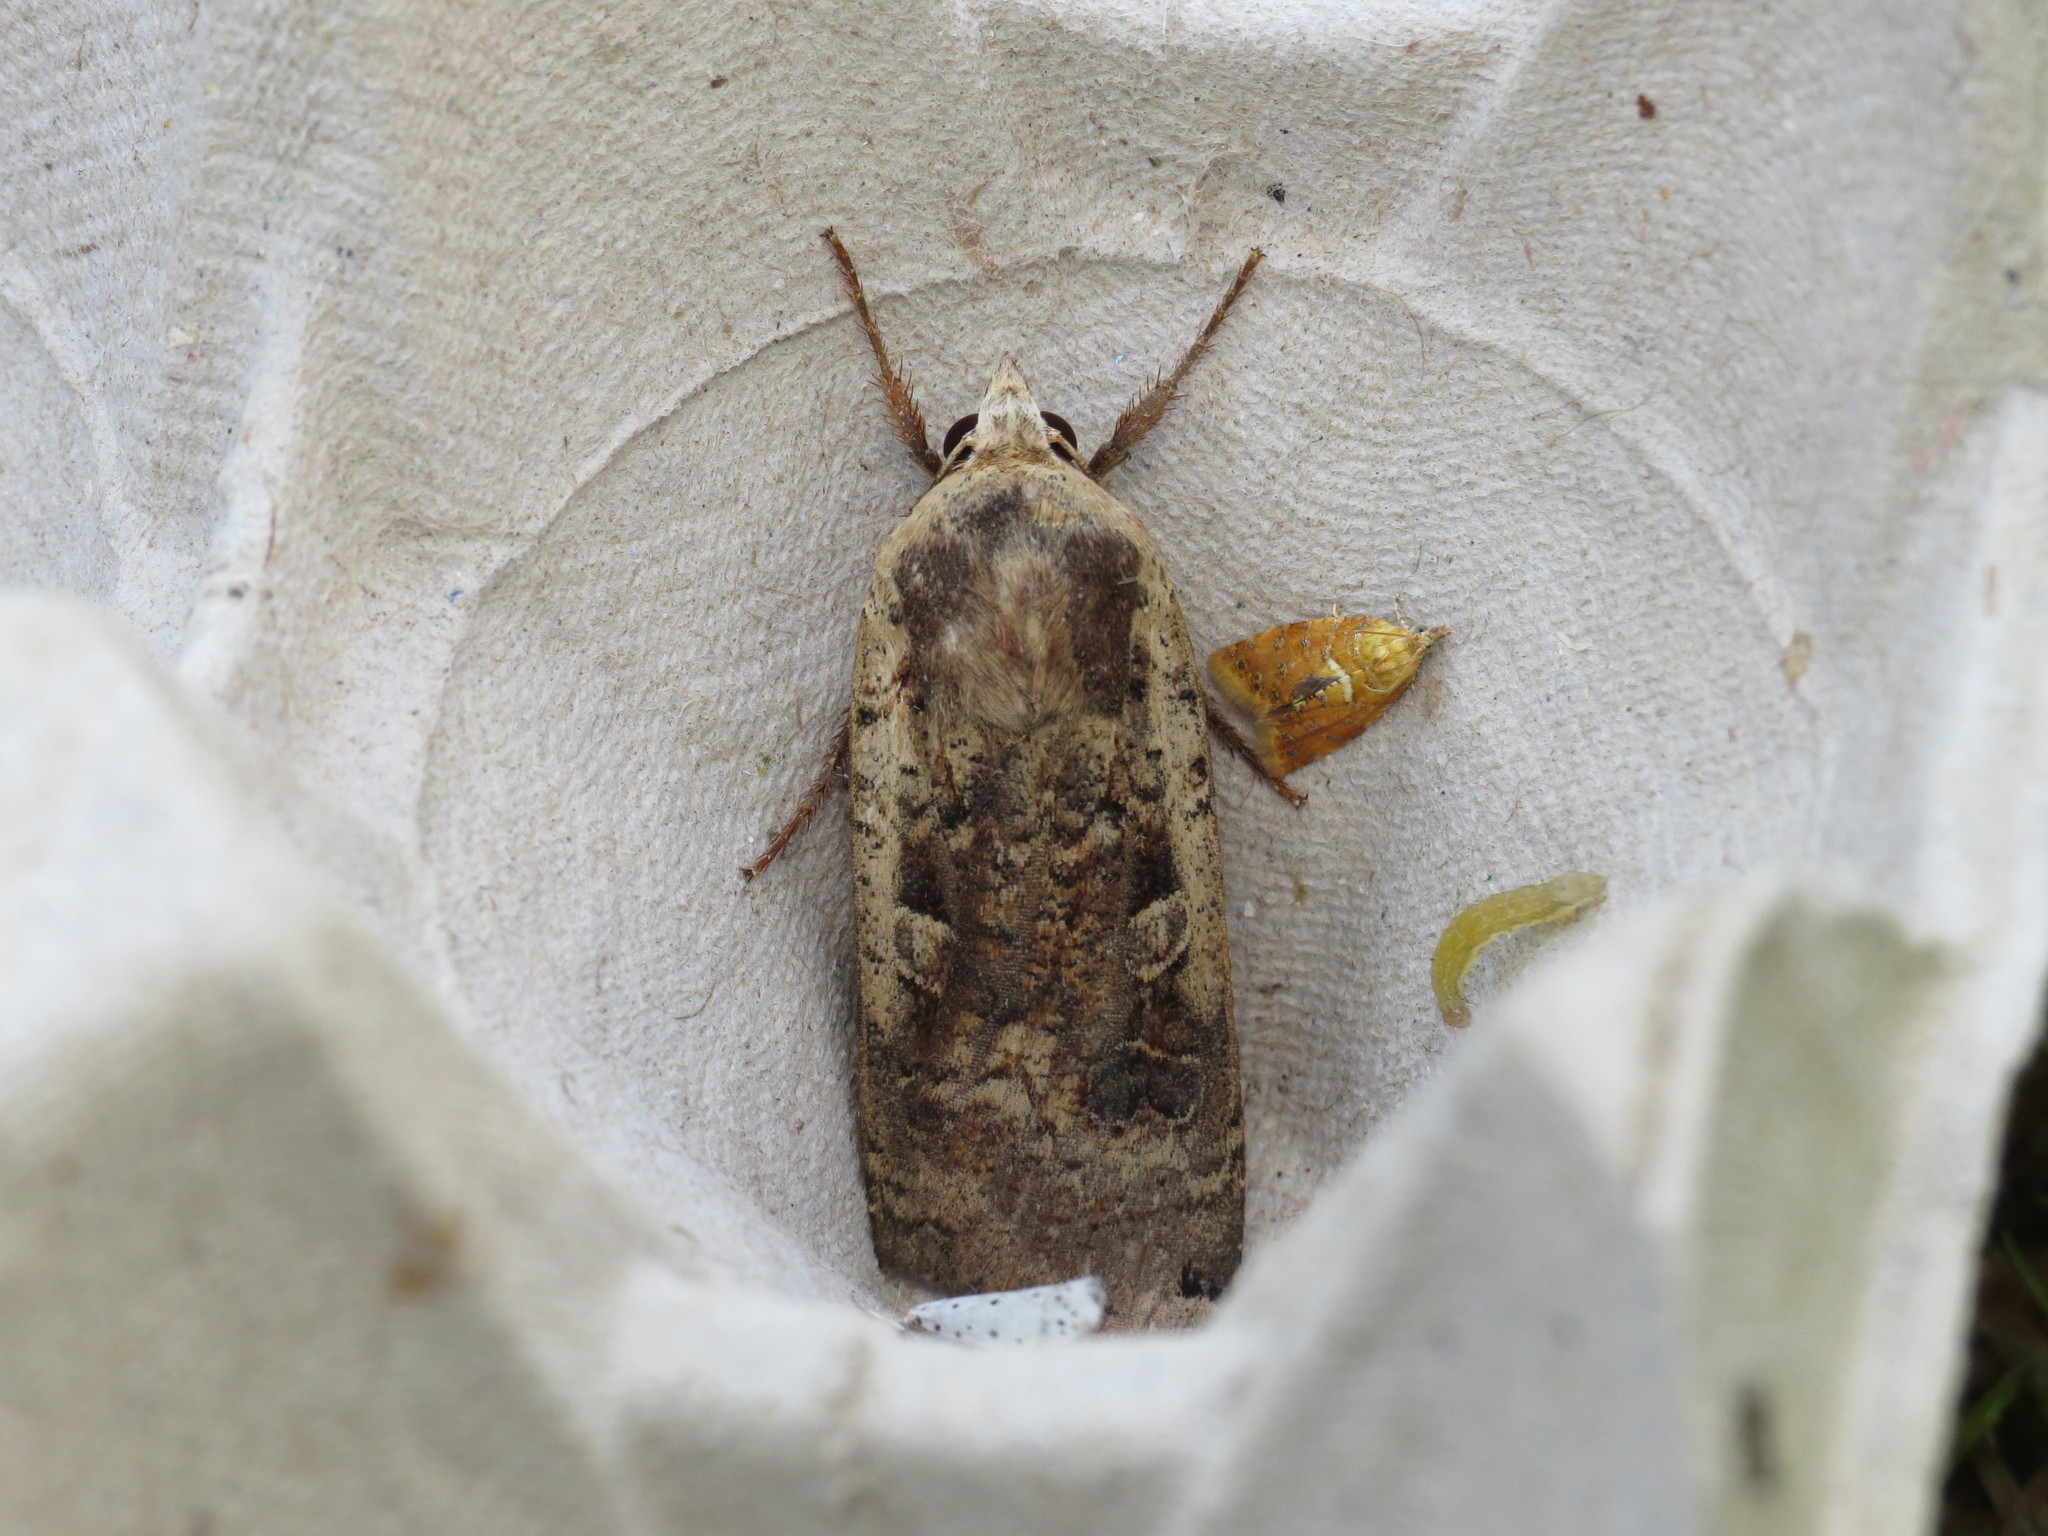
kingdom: Animalia
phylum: Arthropoda
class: Insecta
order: Lepidoptera
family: Noctuidae
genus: Noctua
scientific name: Noctua pronuba
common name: Large yellow underwing
